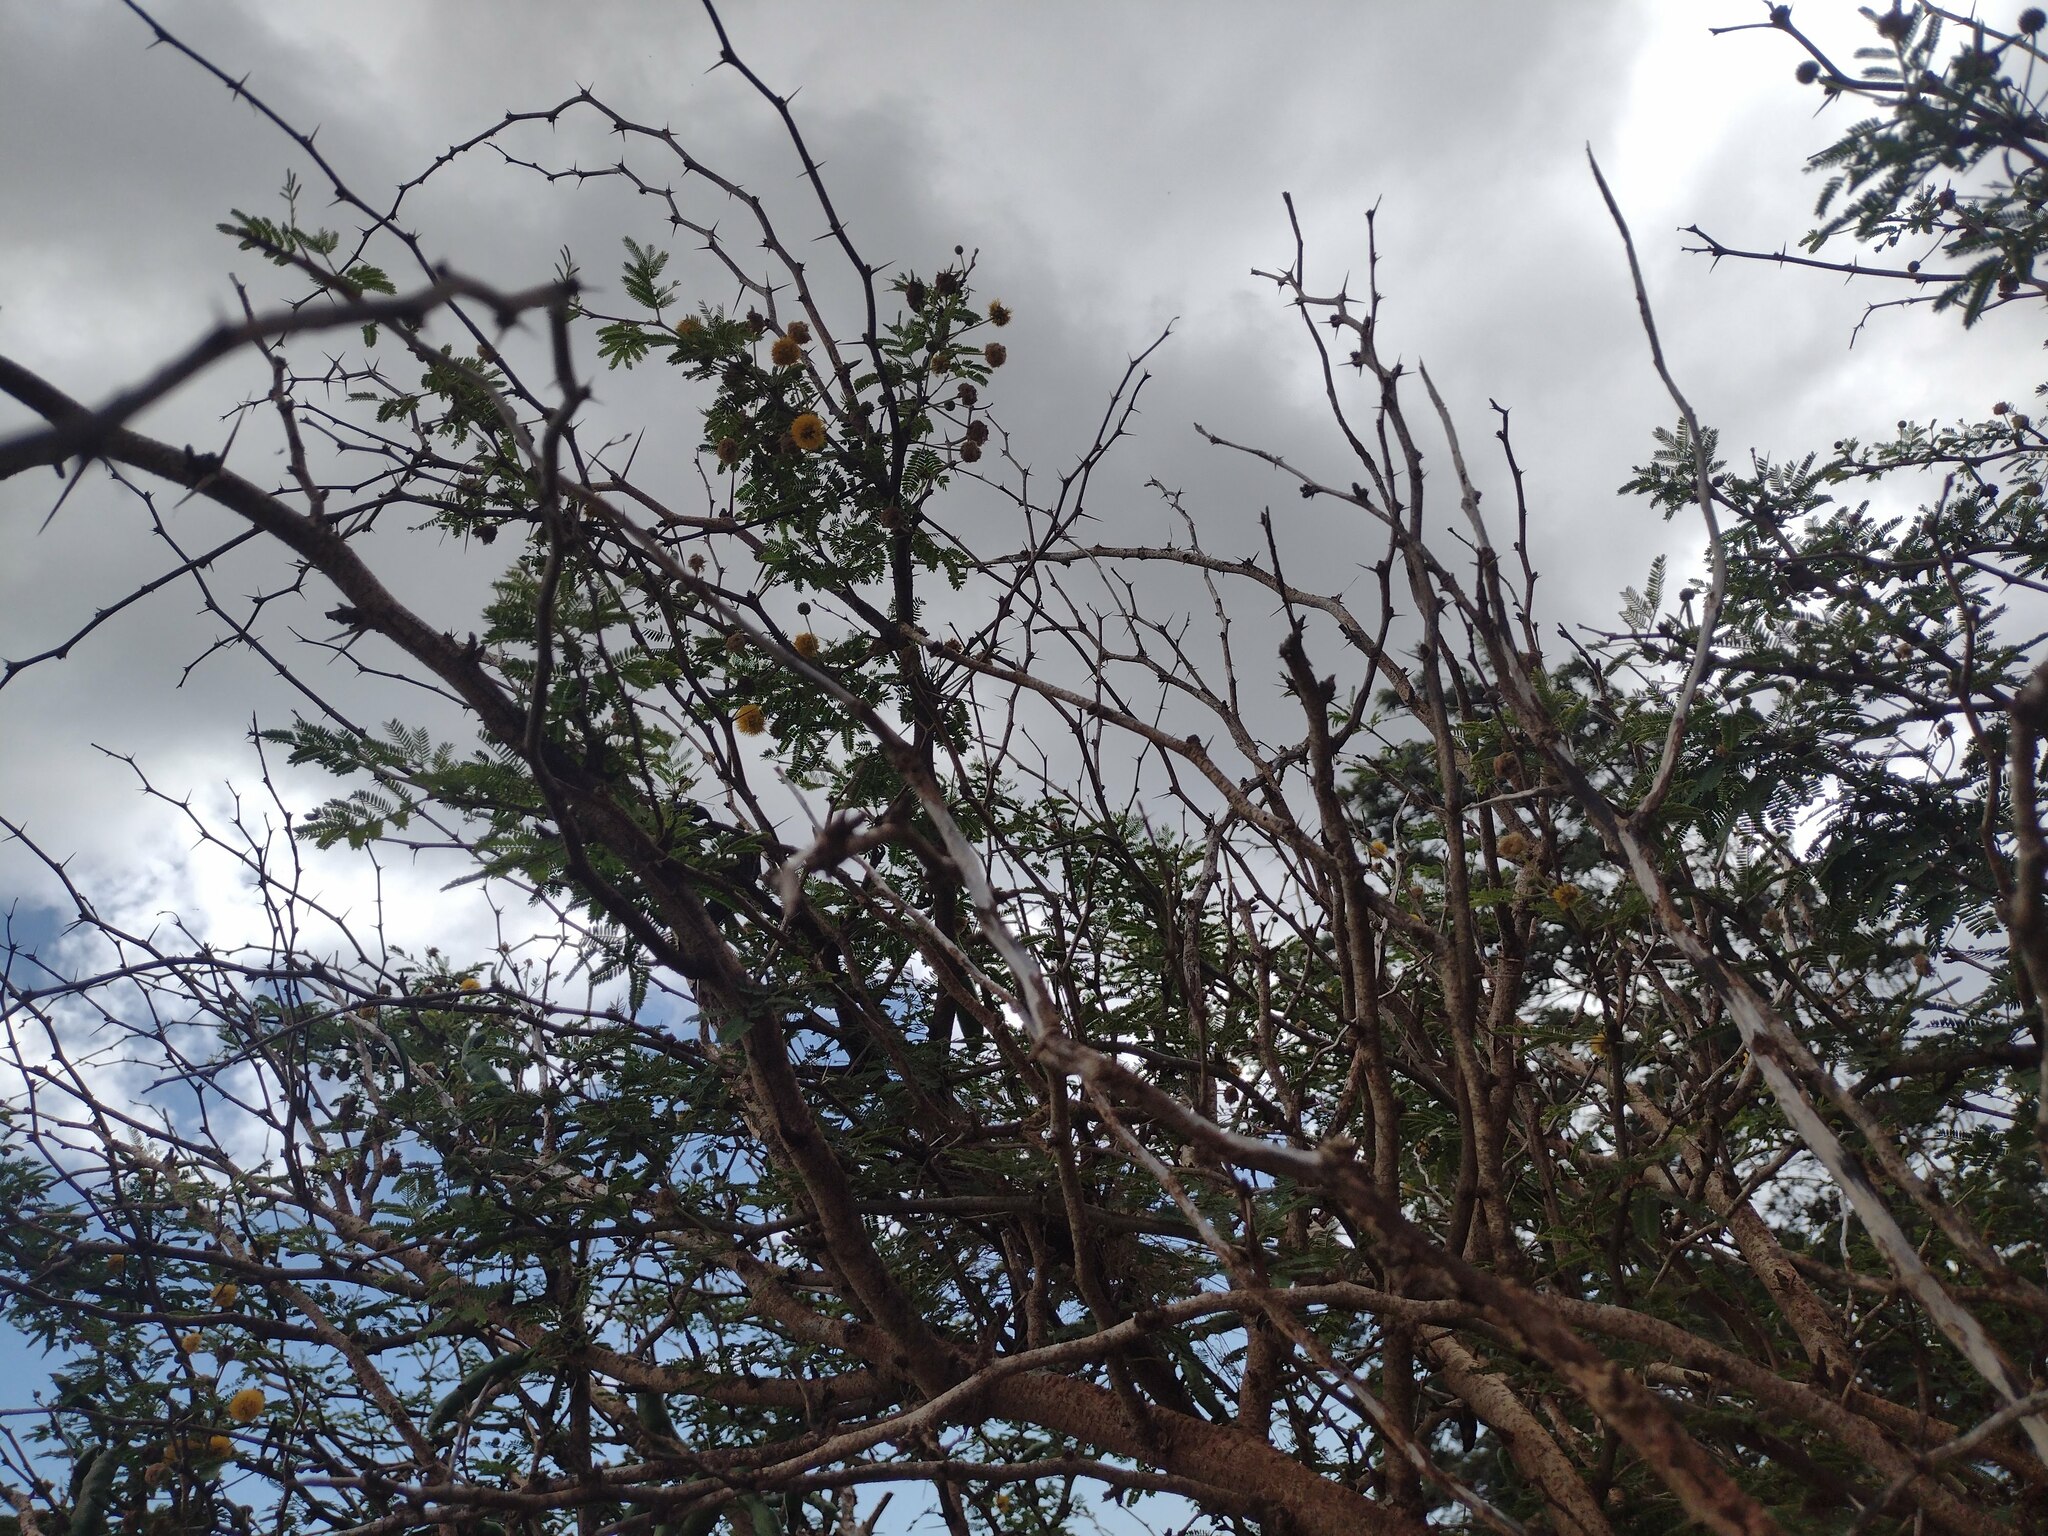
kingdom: Plantae
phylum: Tracheophyta
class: Magnoliopsida
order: Fabales
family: Fabaceae
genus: Vachellia
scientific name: Vachellia farnesiana
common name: Sweet acacia
